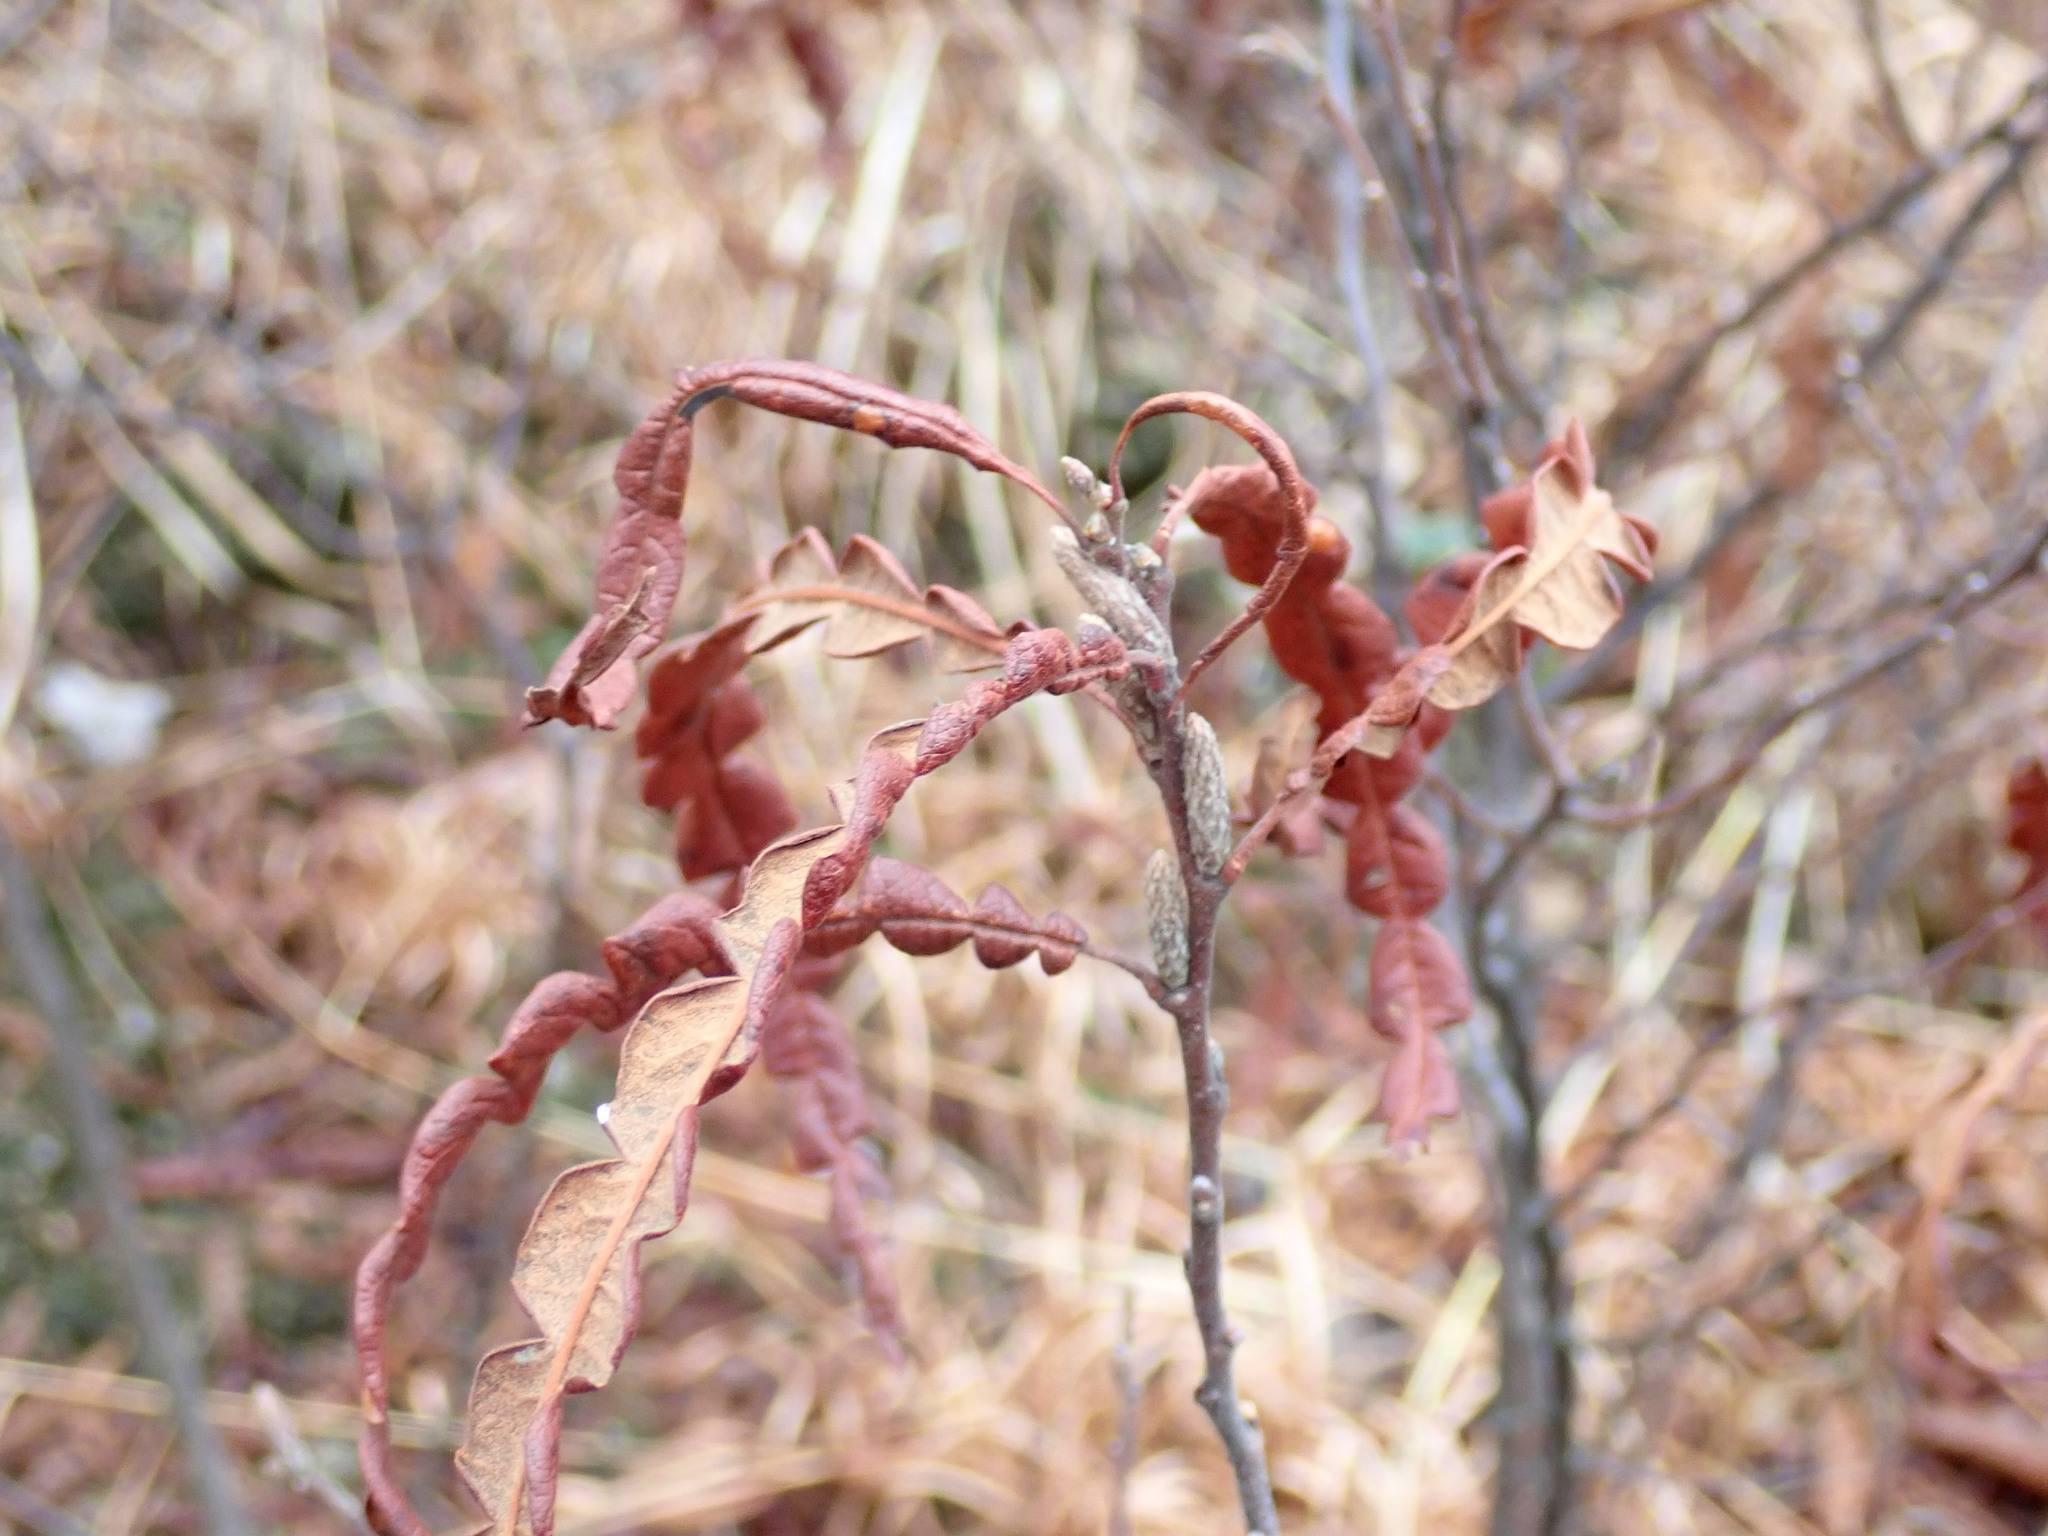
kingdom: Plantae
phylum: Tracheophyta
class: Magnoliopsida
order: Fagales
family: Myricaceae
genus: Comptonia
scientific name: Comptonia peregrina
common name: Sweet-fern
